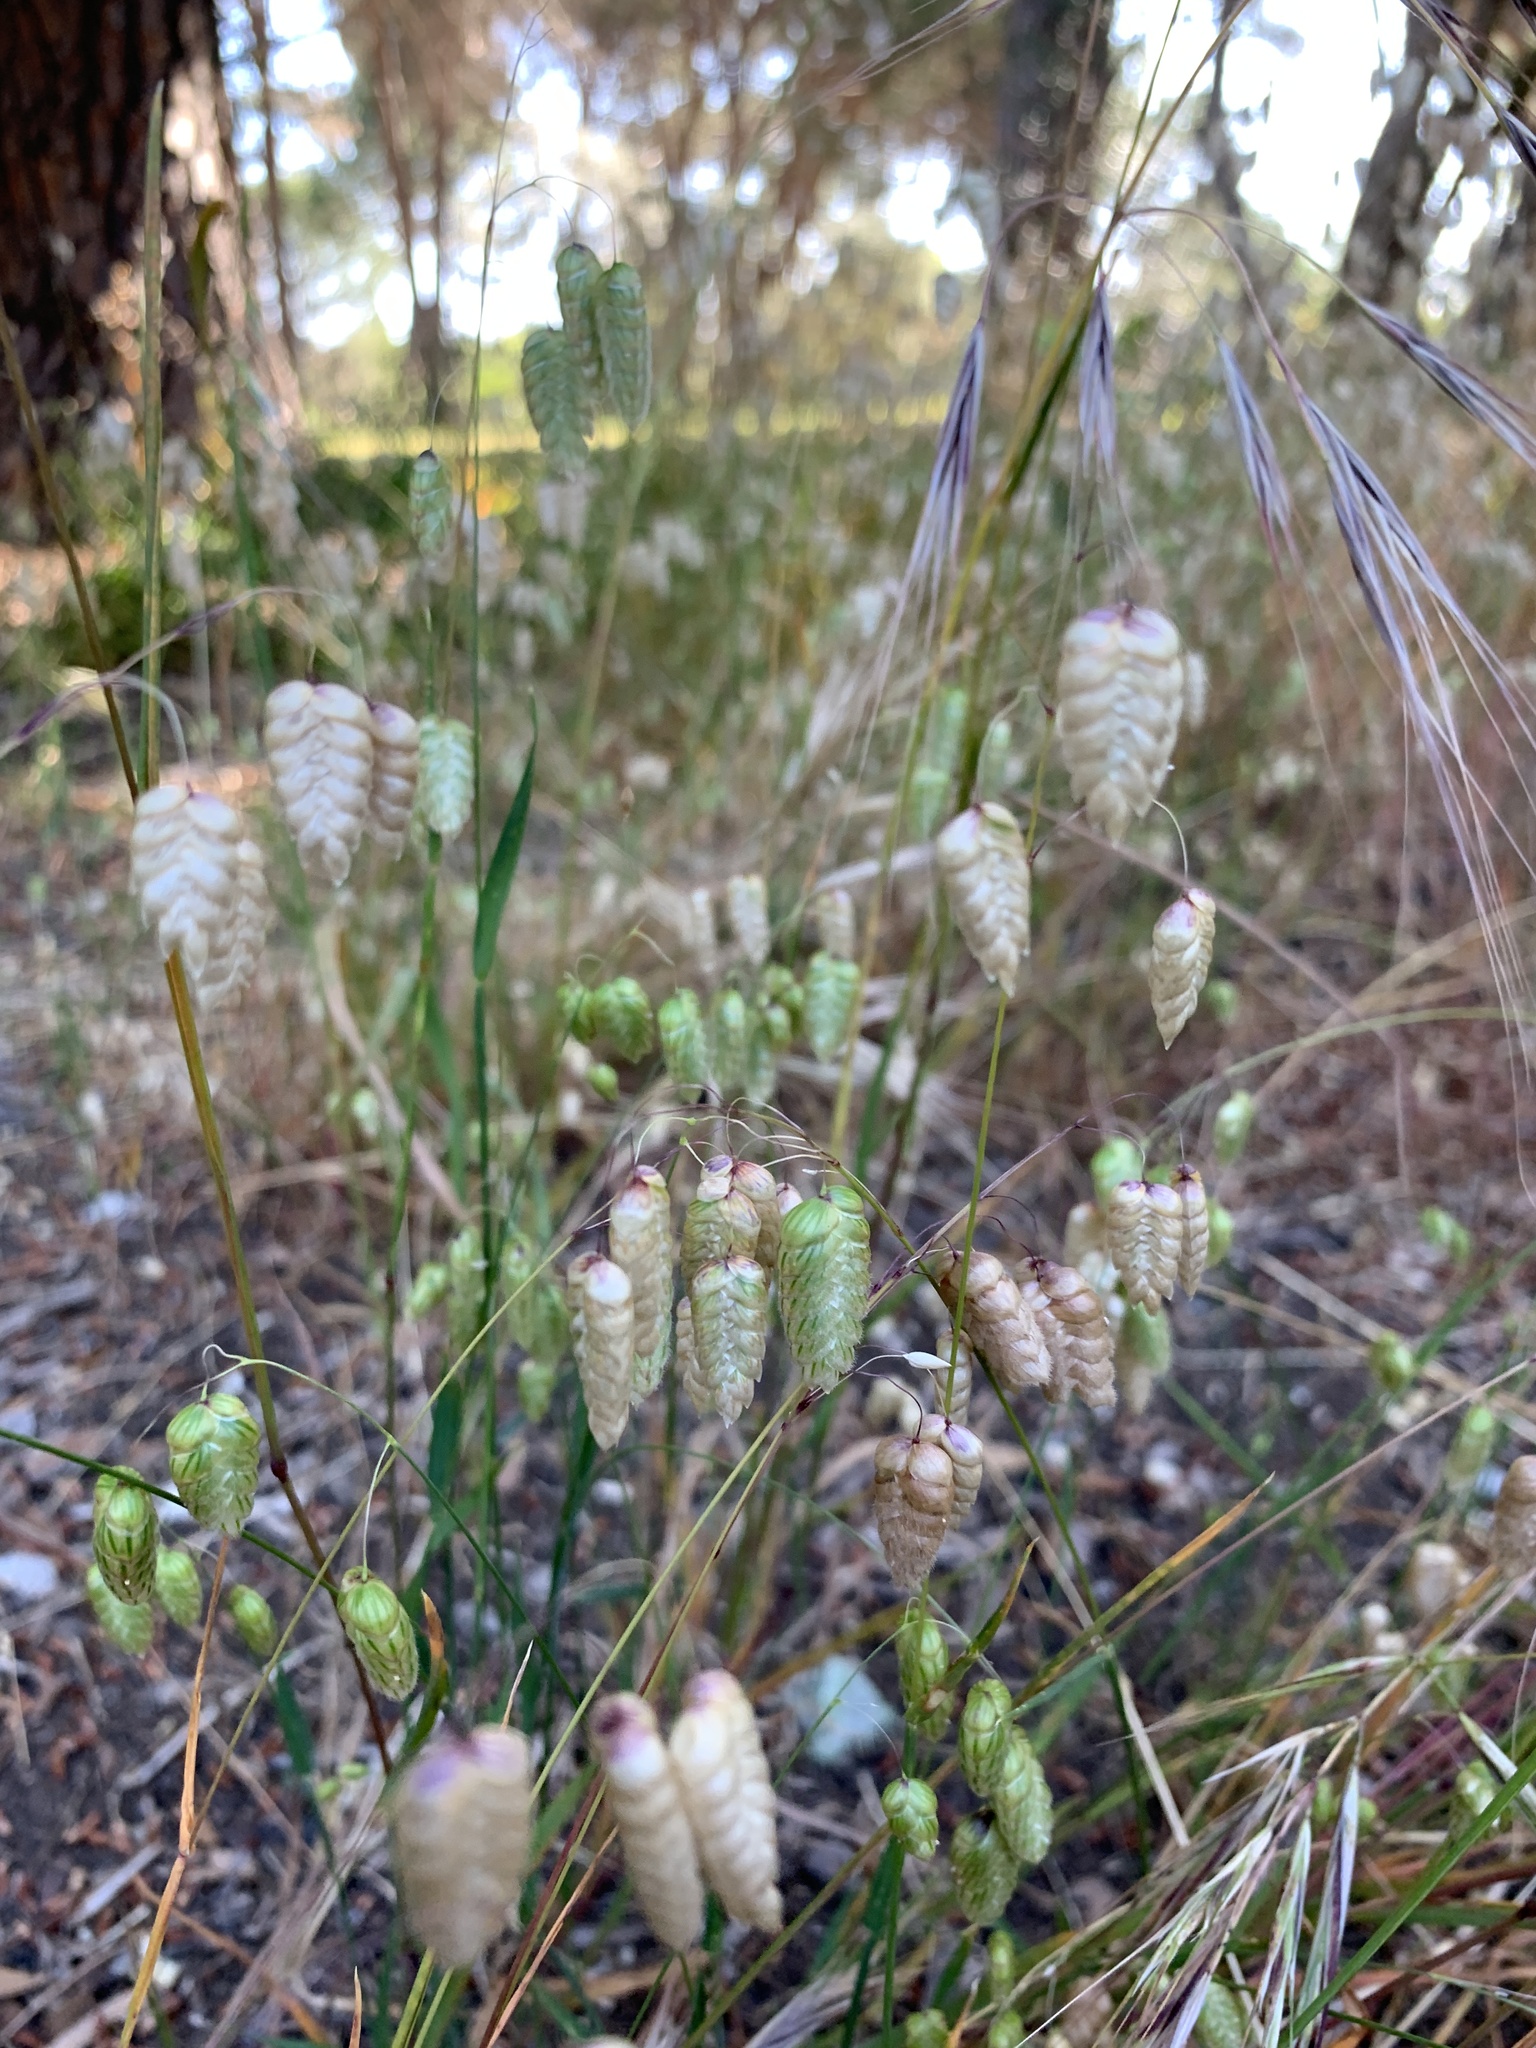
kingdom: Plantae
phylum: Tracheophyta
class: Liliopsida
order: Poales
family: Poaceae
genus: Briza
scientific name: Briza maxima
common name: Big quakinggrass
